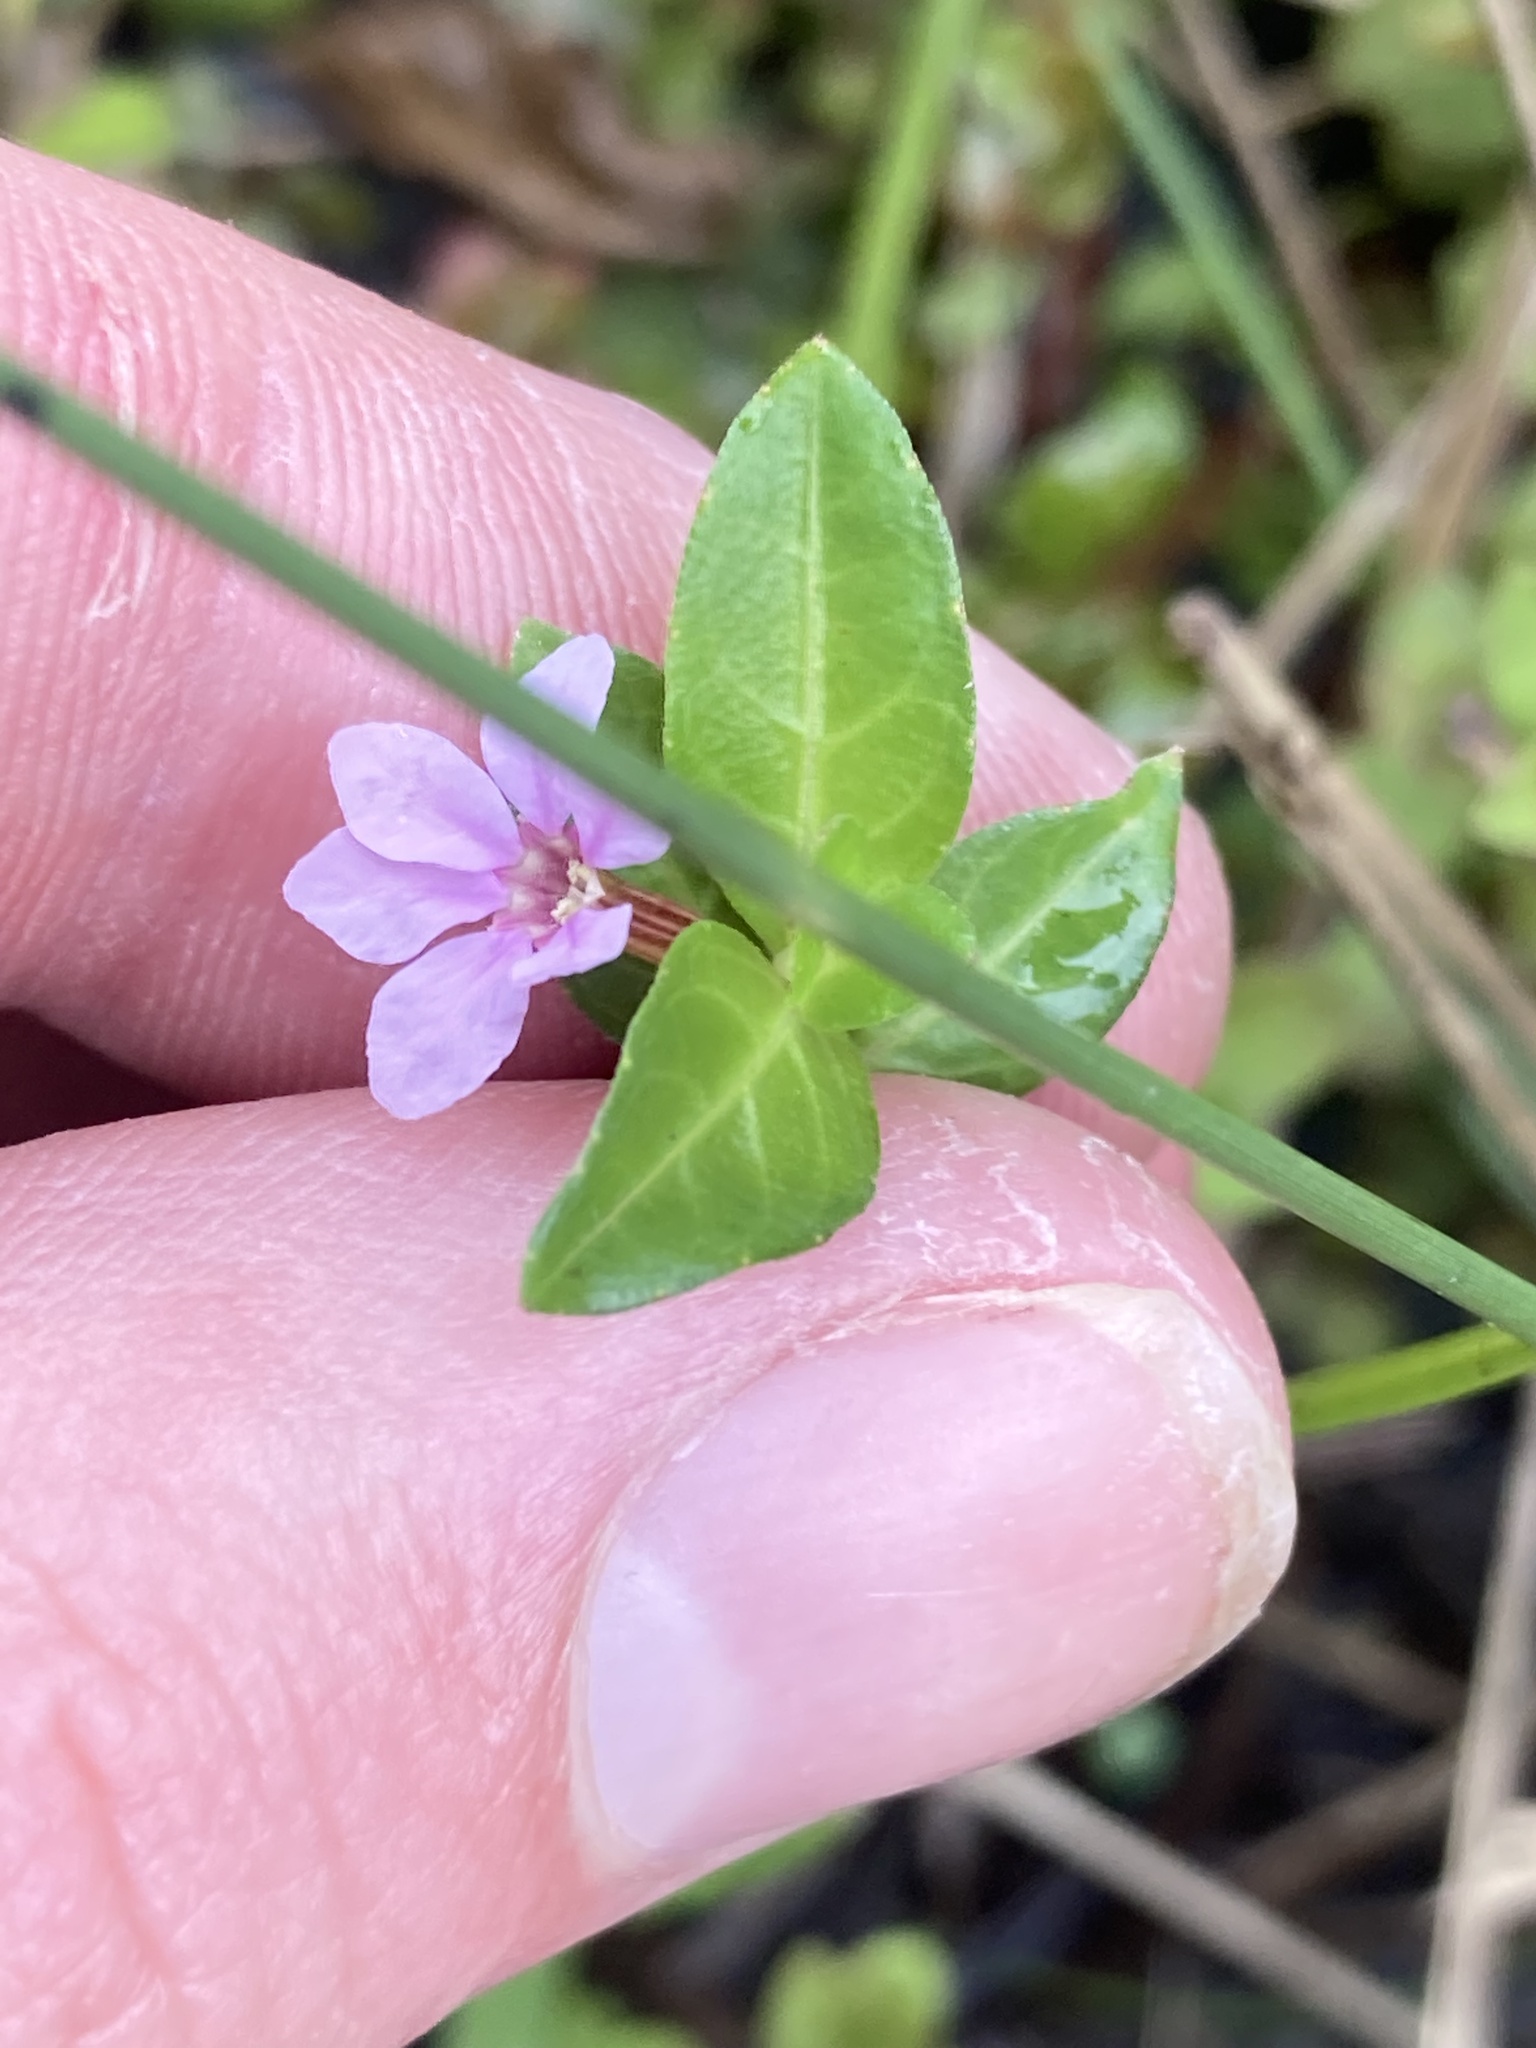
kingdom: Plantae
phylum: Tracheophyta
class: Magnoliopsida
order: Myrtales
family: Lythraceae
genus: Cuphea
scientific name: Cuphea strigulosa
